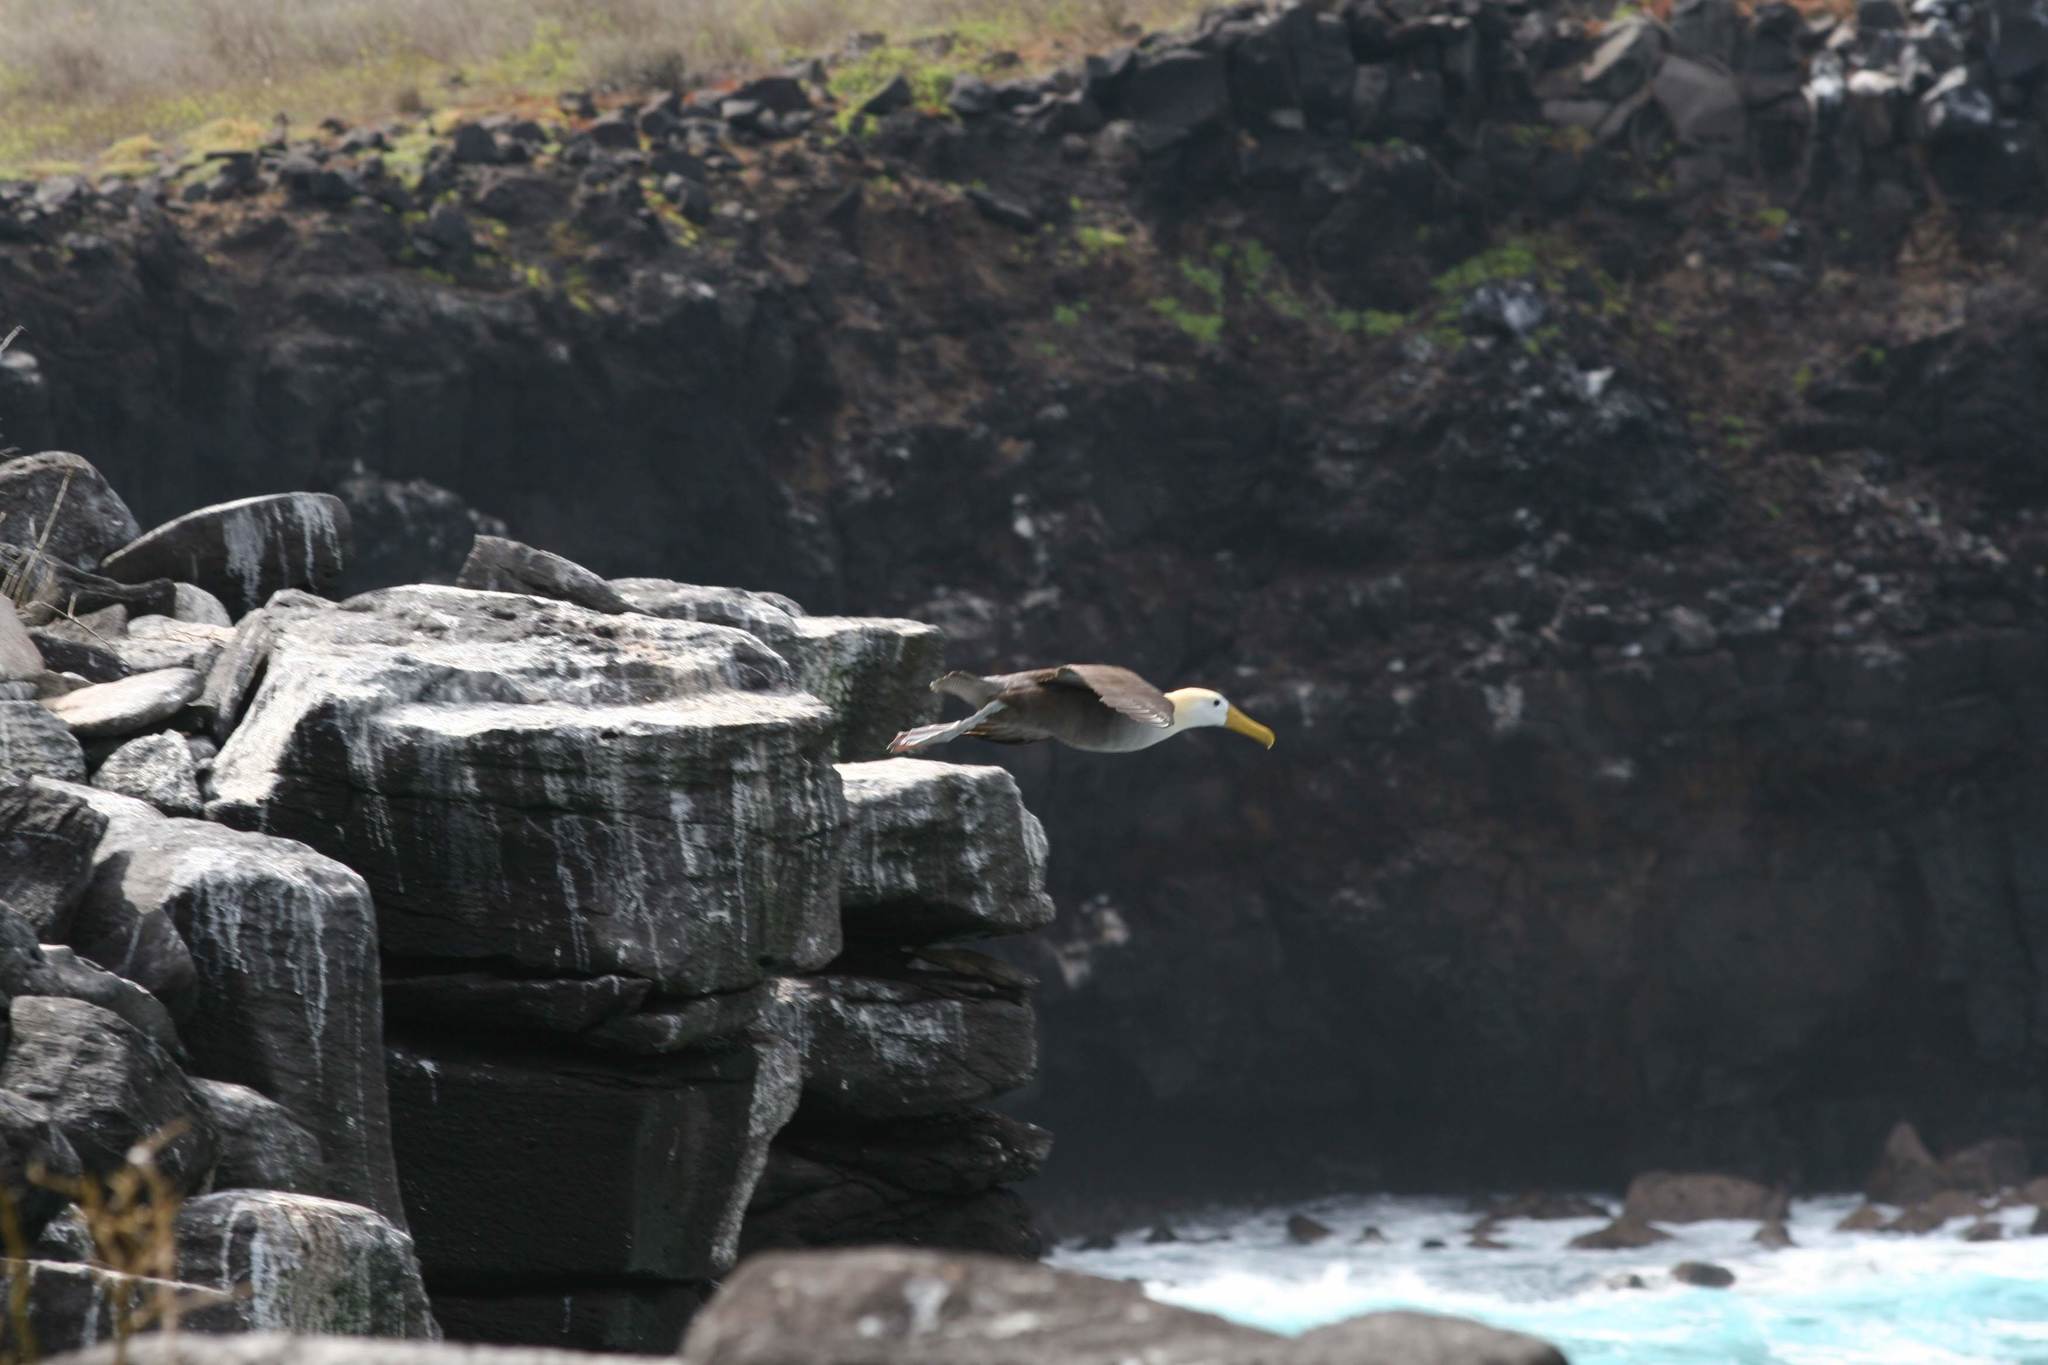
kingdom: Animalia
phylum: Chordata
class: Aves
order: Procellariiformes
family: Diomedeidae
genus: Phoebastria
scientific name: Phoebastria irrorata
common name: Waved albatross
